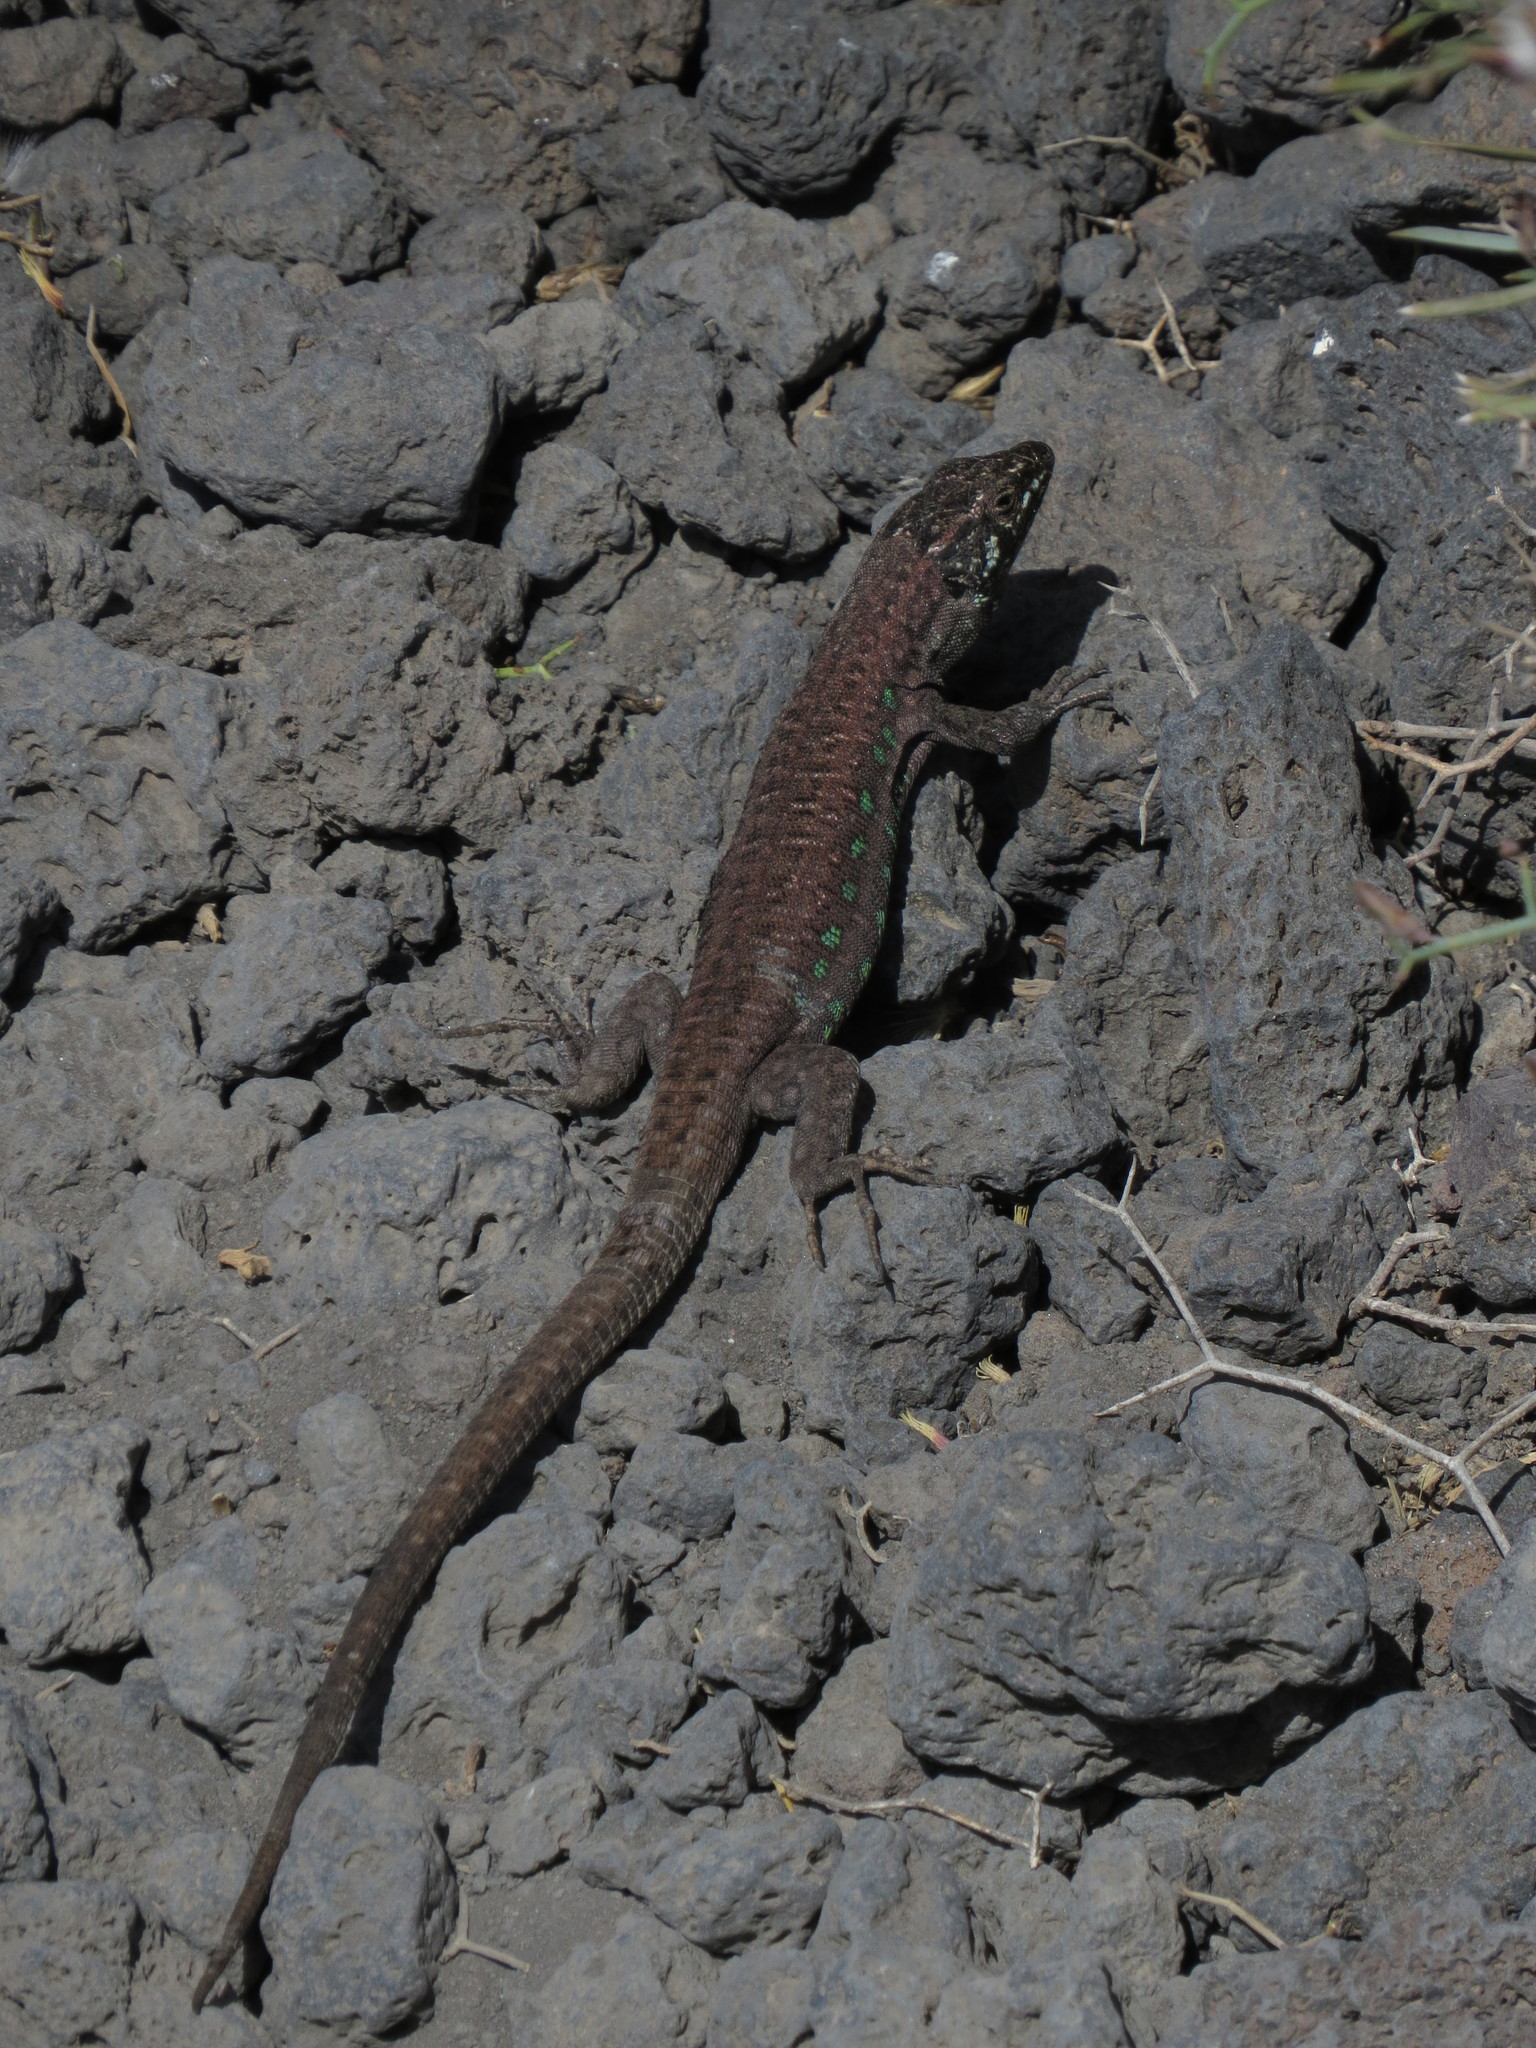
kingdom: Animalia
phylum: Chordata
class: Squamata
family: Lacertidae
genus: Gallotia
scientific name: Gallotia atlantica
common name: Atlantic lizard
